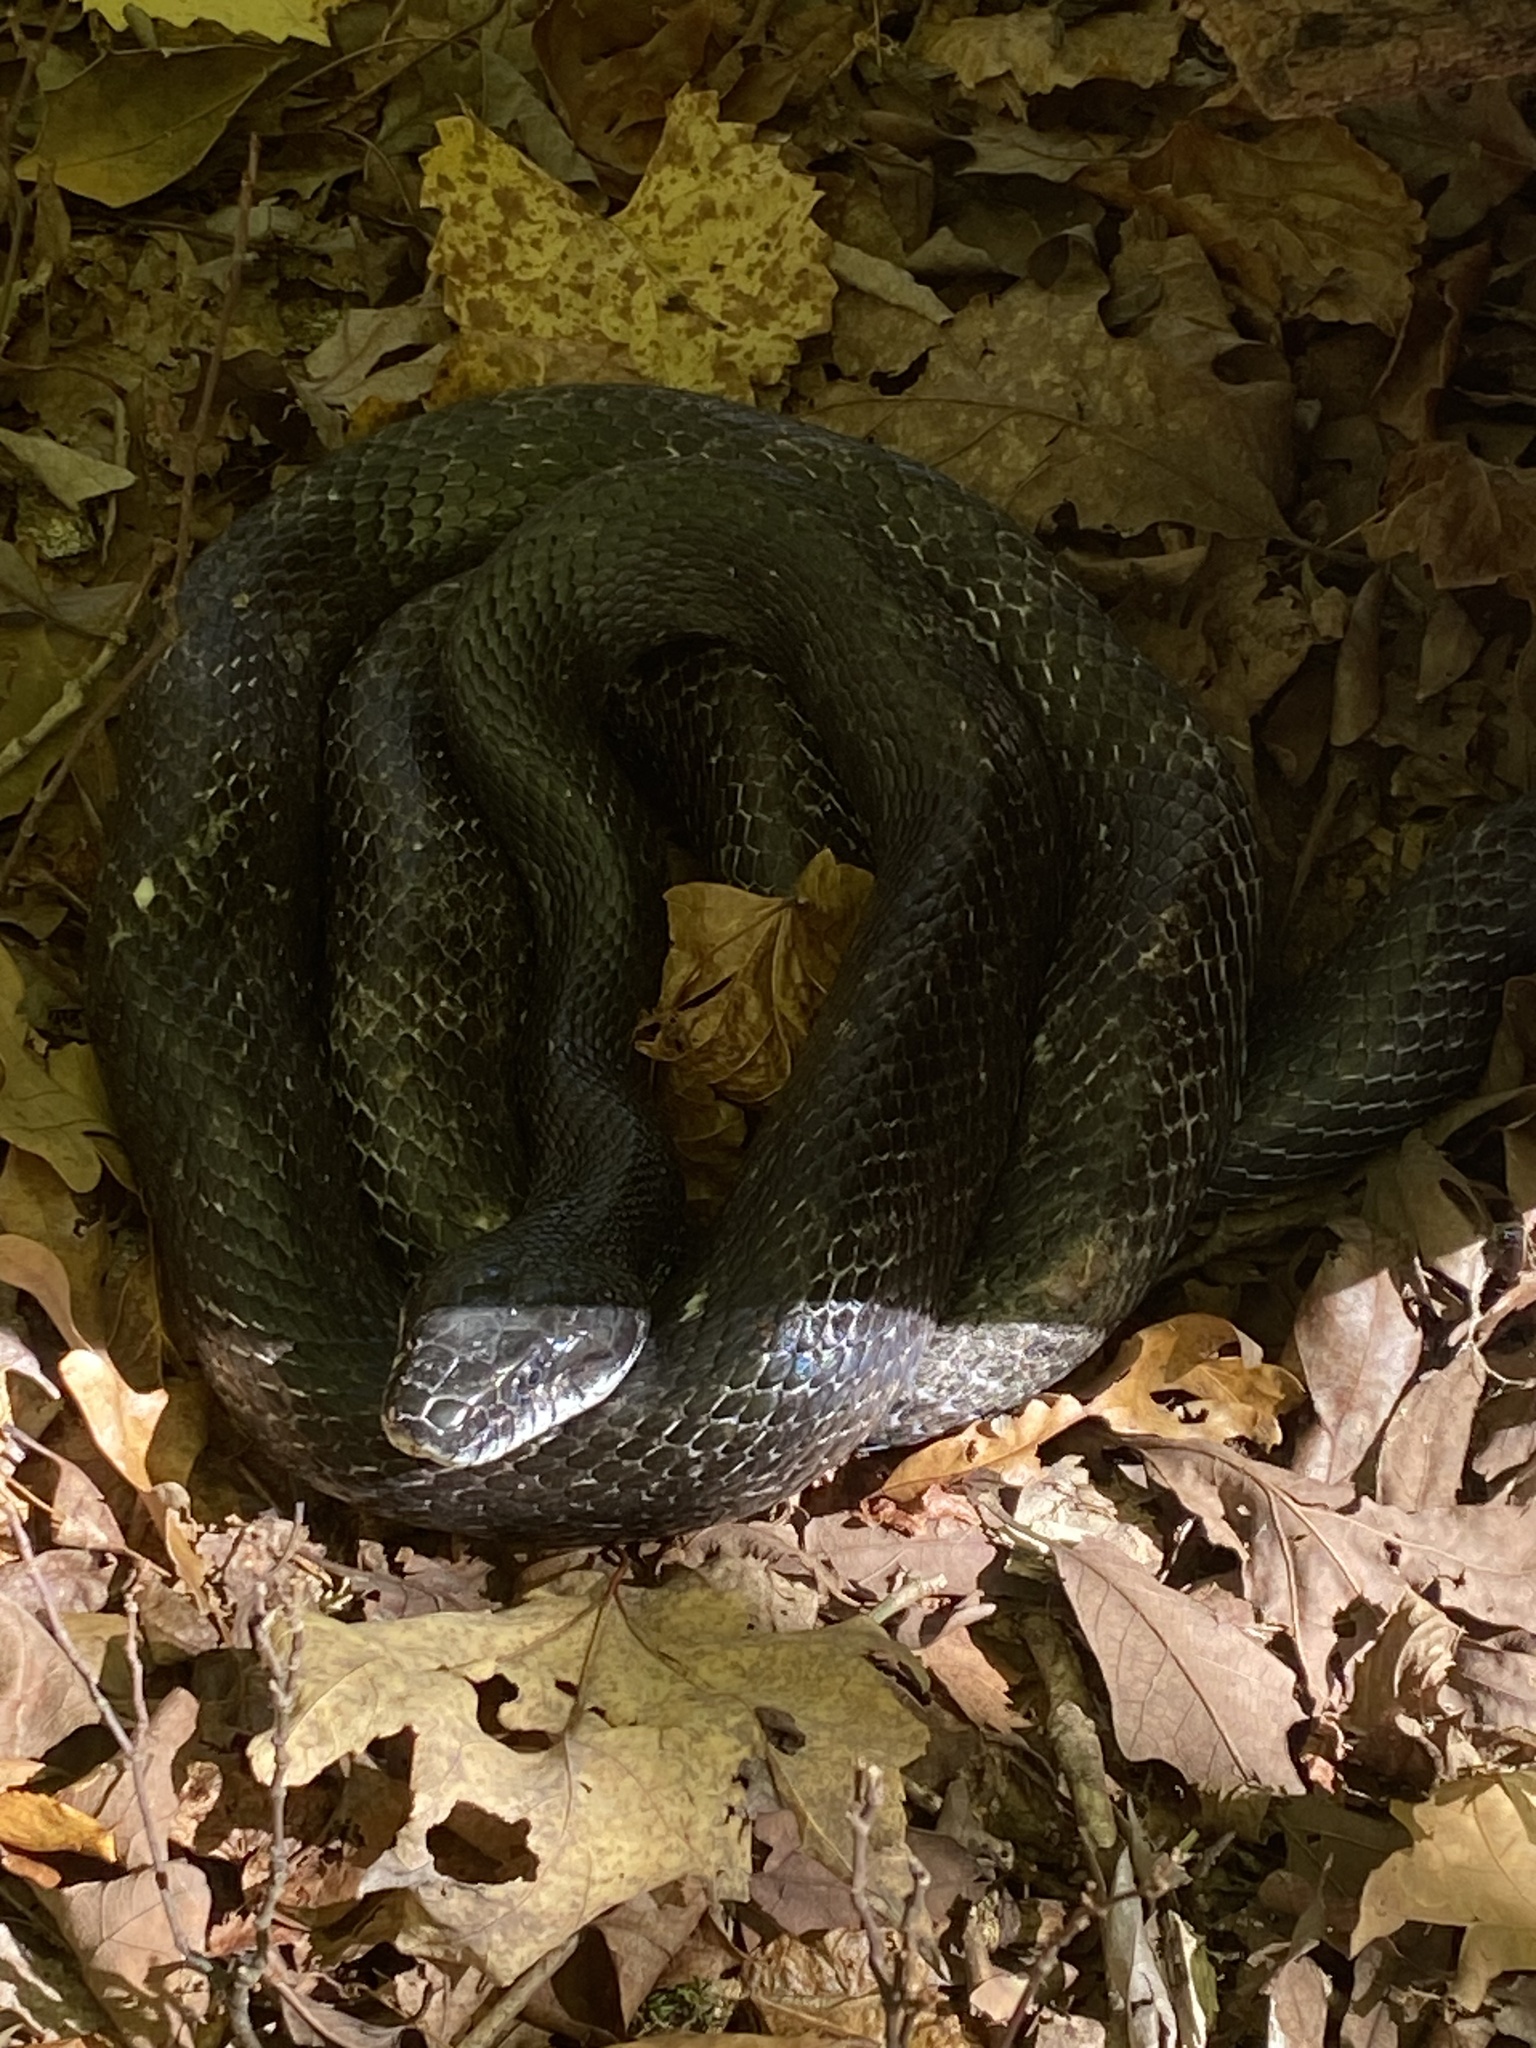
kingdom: Animalia
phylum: Chordata
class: Squamata
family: Colubridae
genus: Pantherophis
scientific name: Pantherophis
